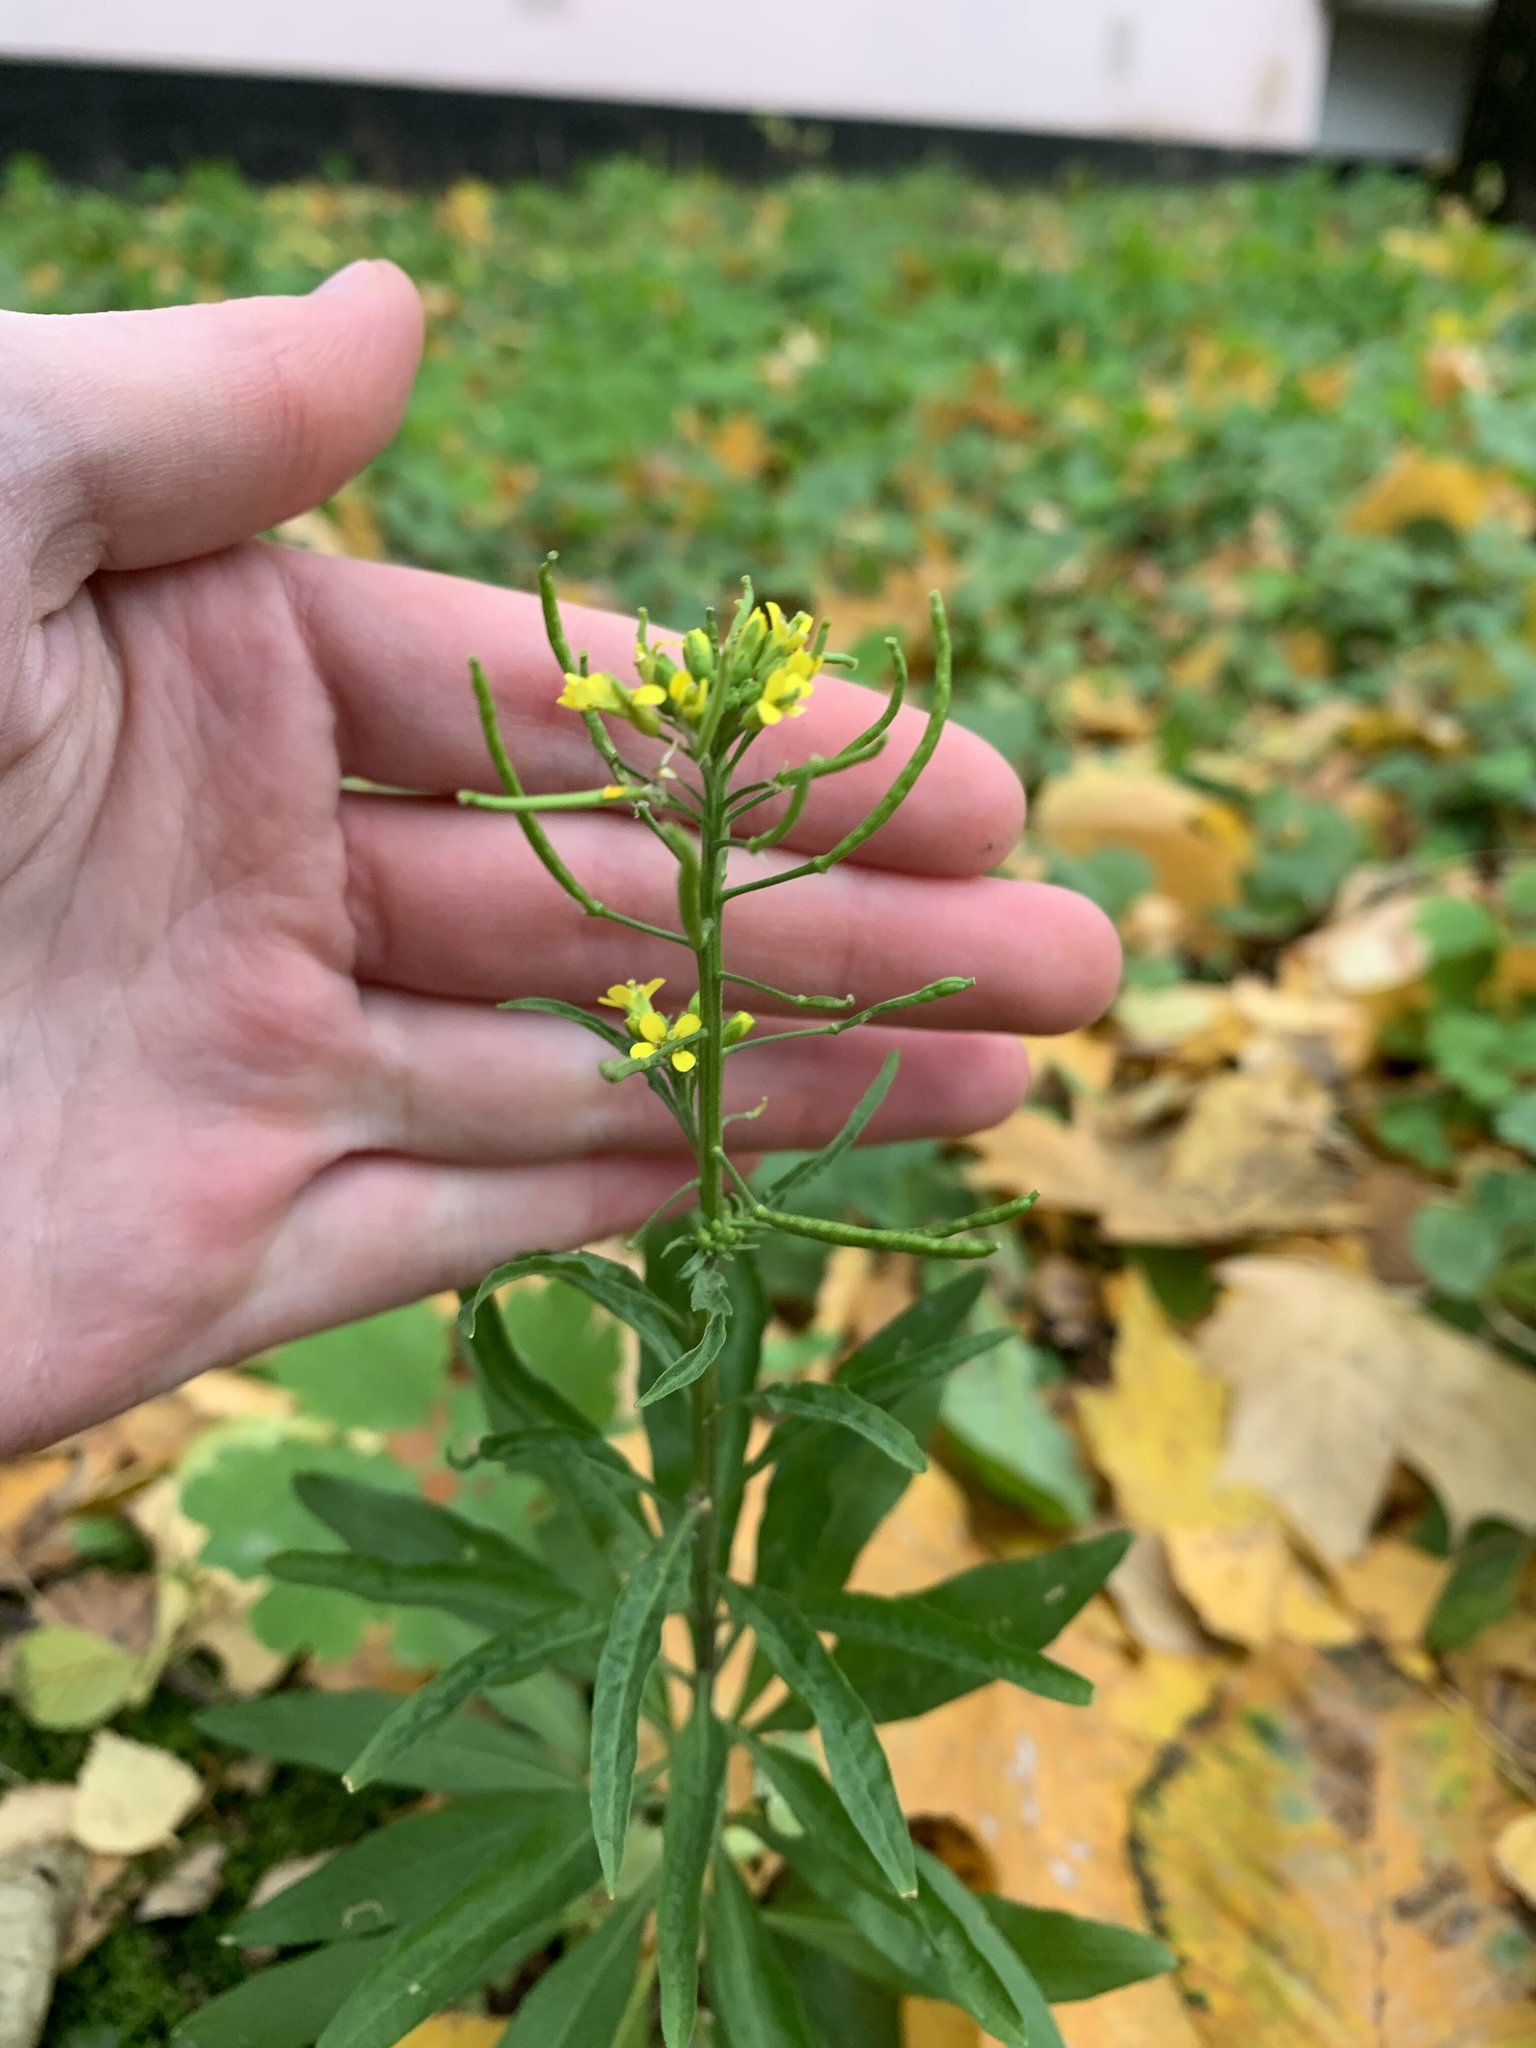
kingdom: Plantae
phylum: Tracheophyta
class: Magnoliopsida
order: Brassicales
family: Brassicaceae
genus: Erysimum
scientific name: Erysimum cheiranthoides
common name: Treacle mustard
